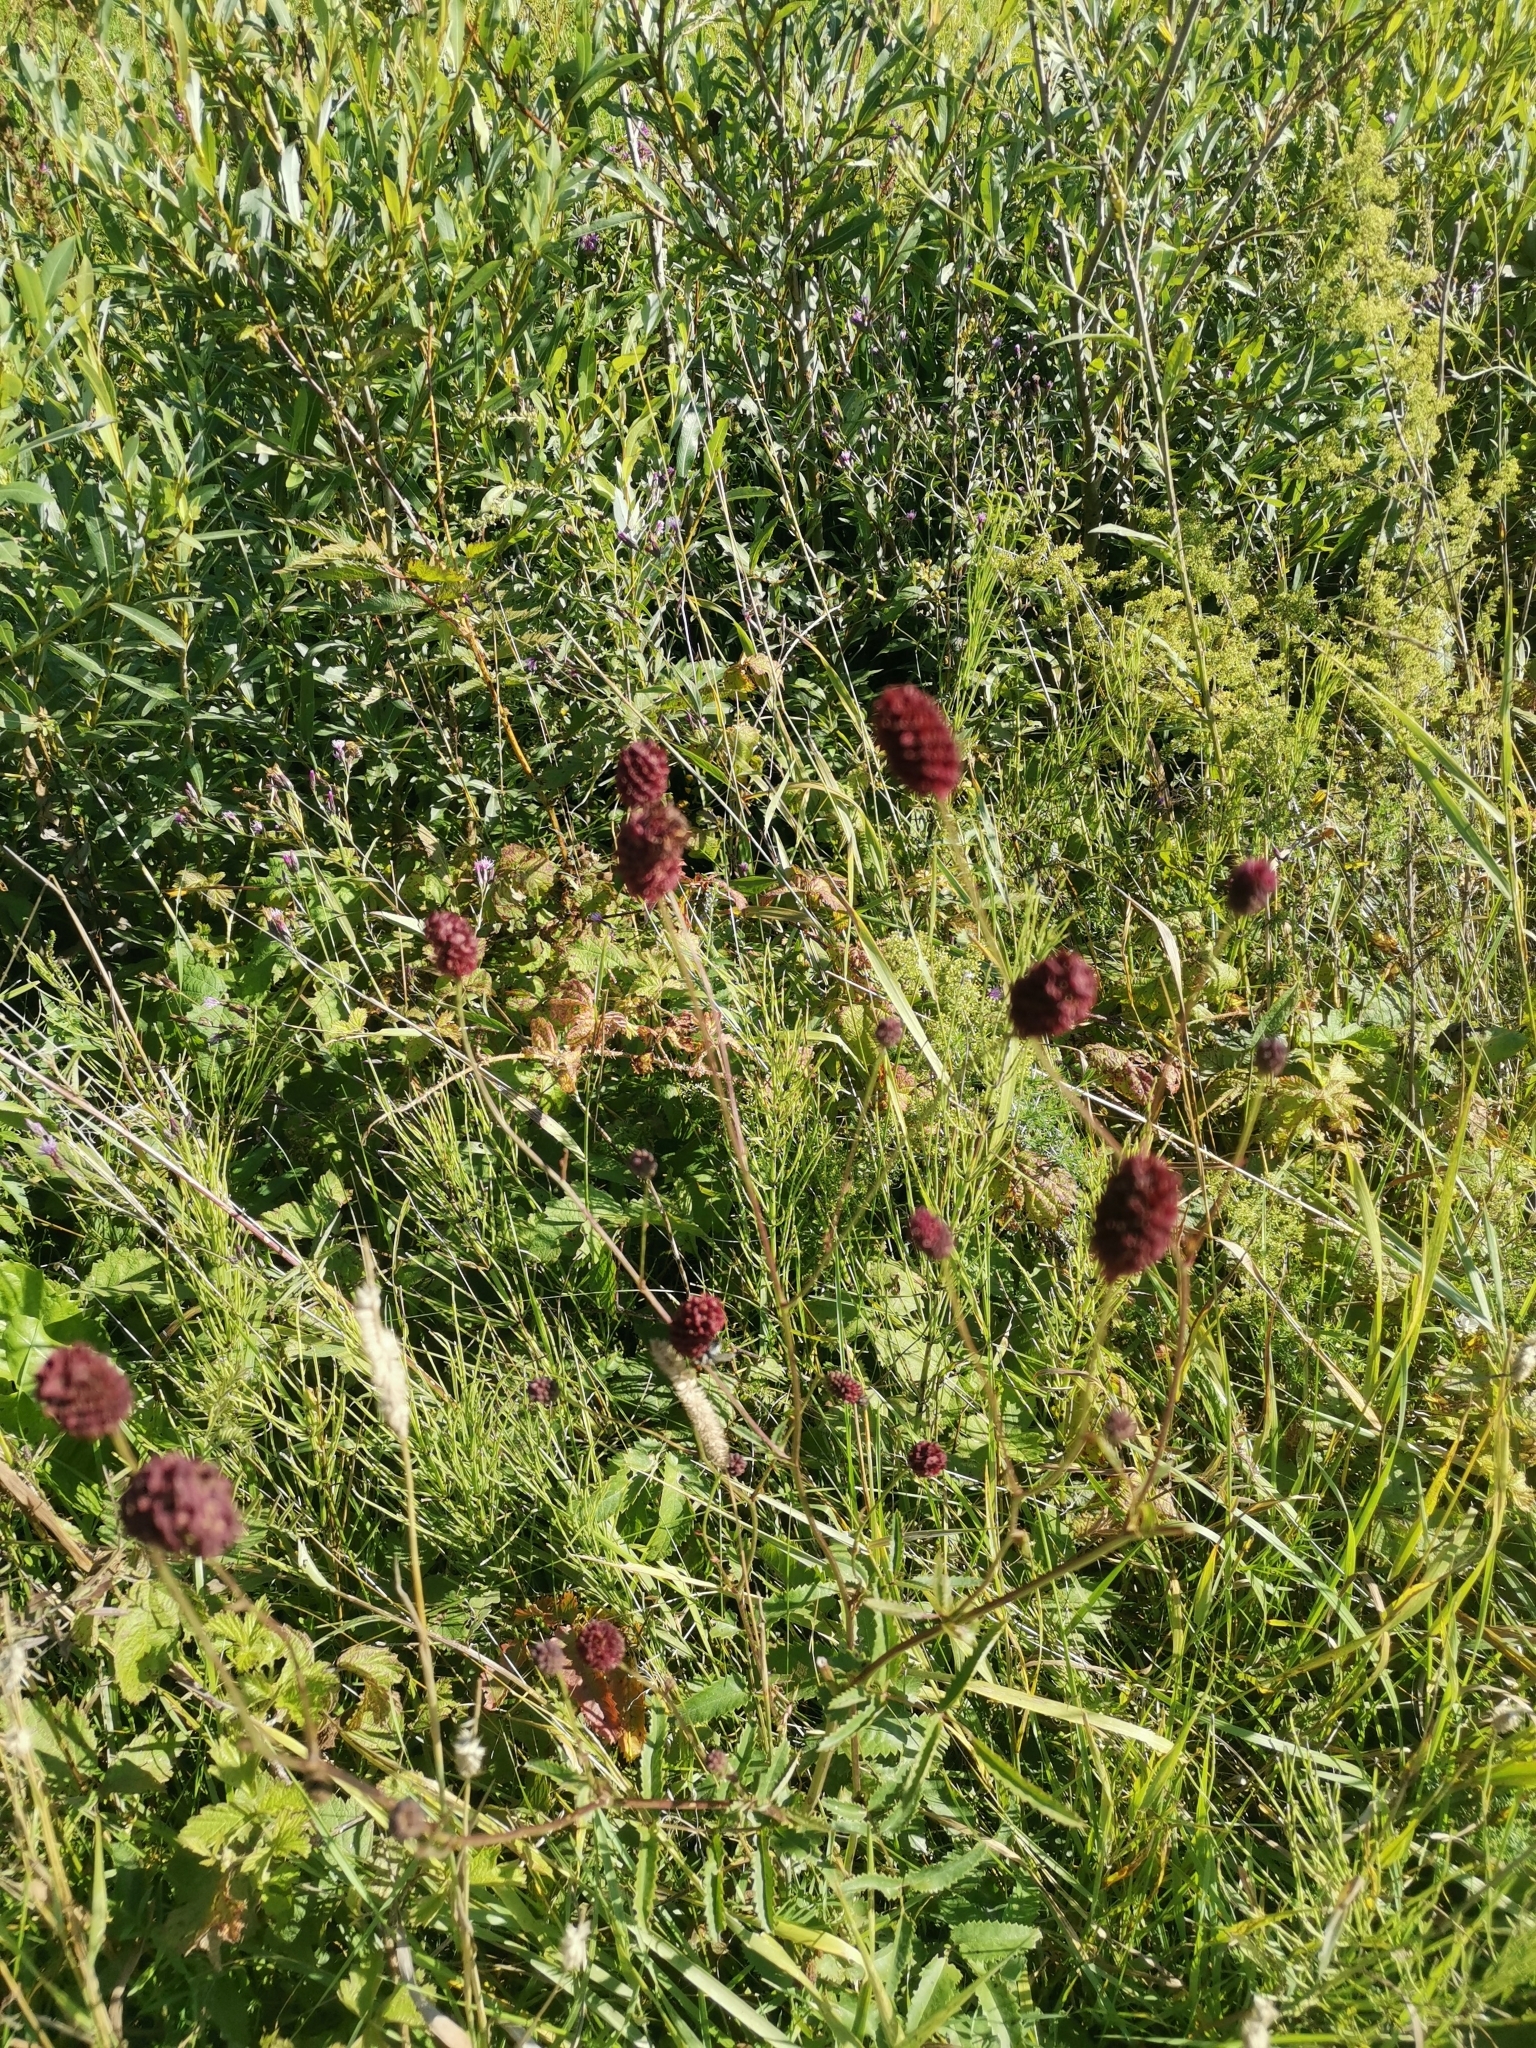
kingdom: Plantae
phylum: Tracheophyta
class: Magnoliopsida
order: Rosales
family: Rosaceae
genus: Sanguisorba
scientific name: Sanguisorba officinalis
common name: Great burnet
